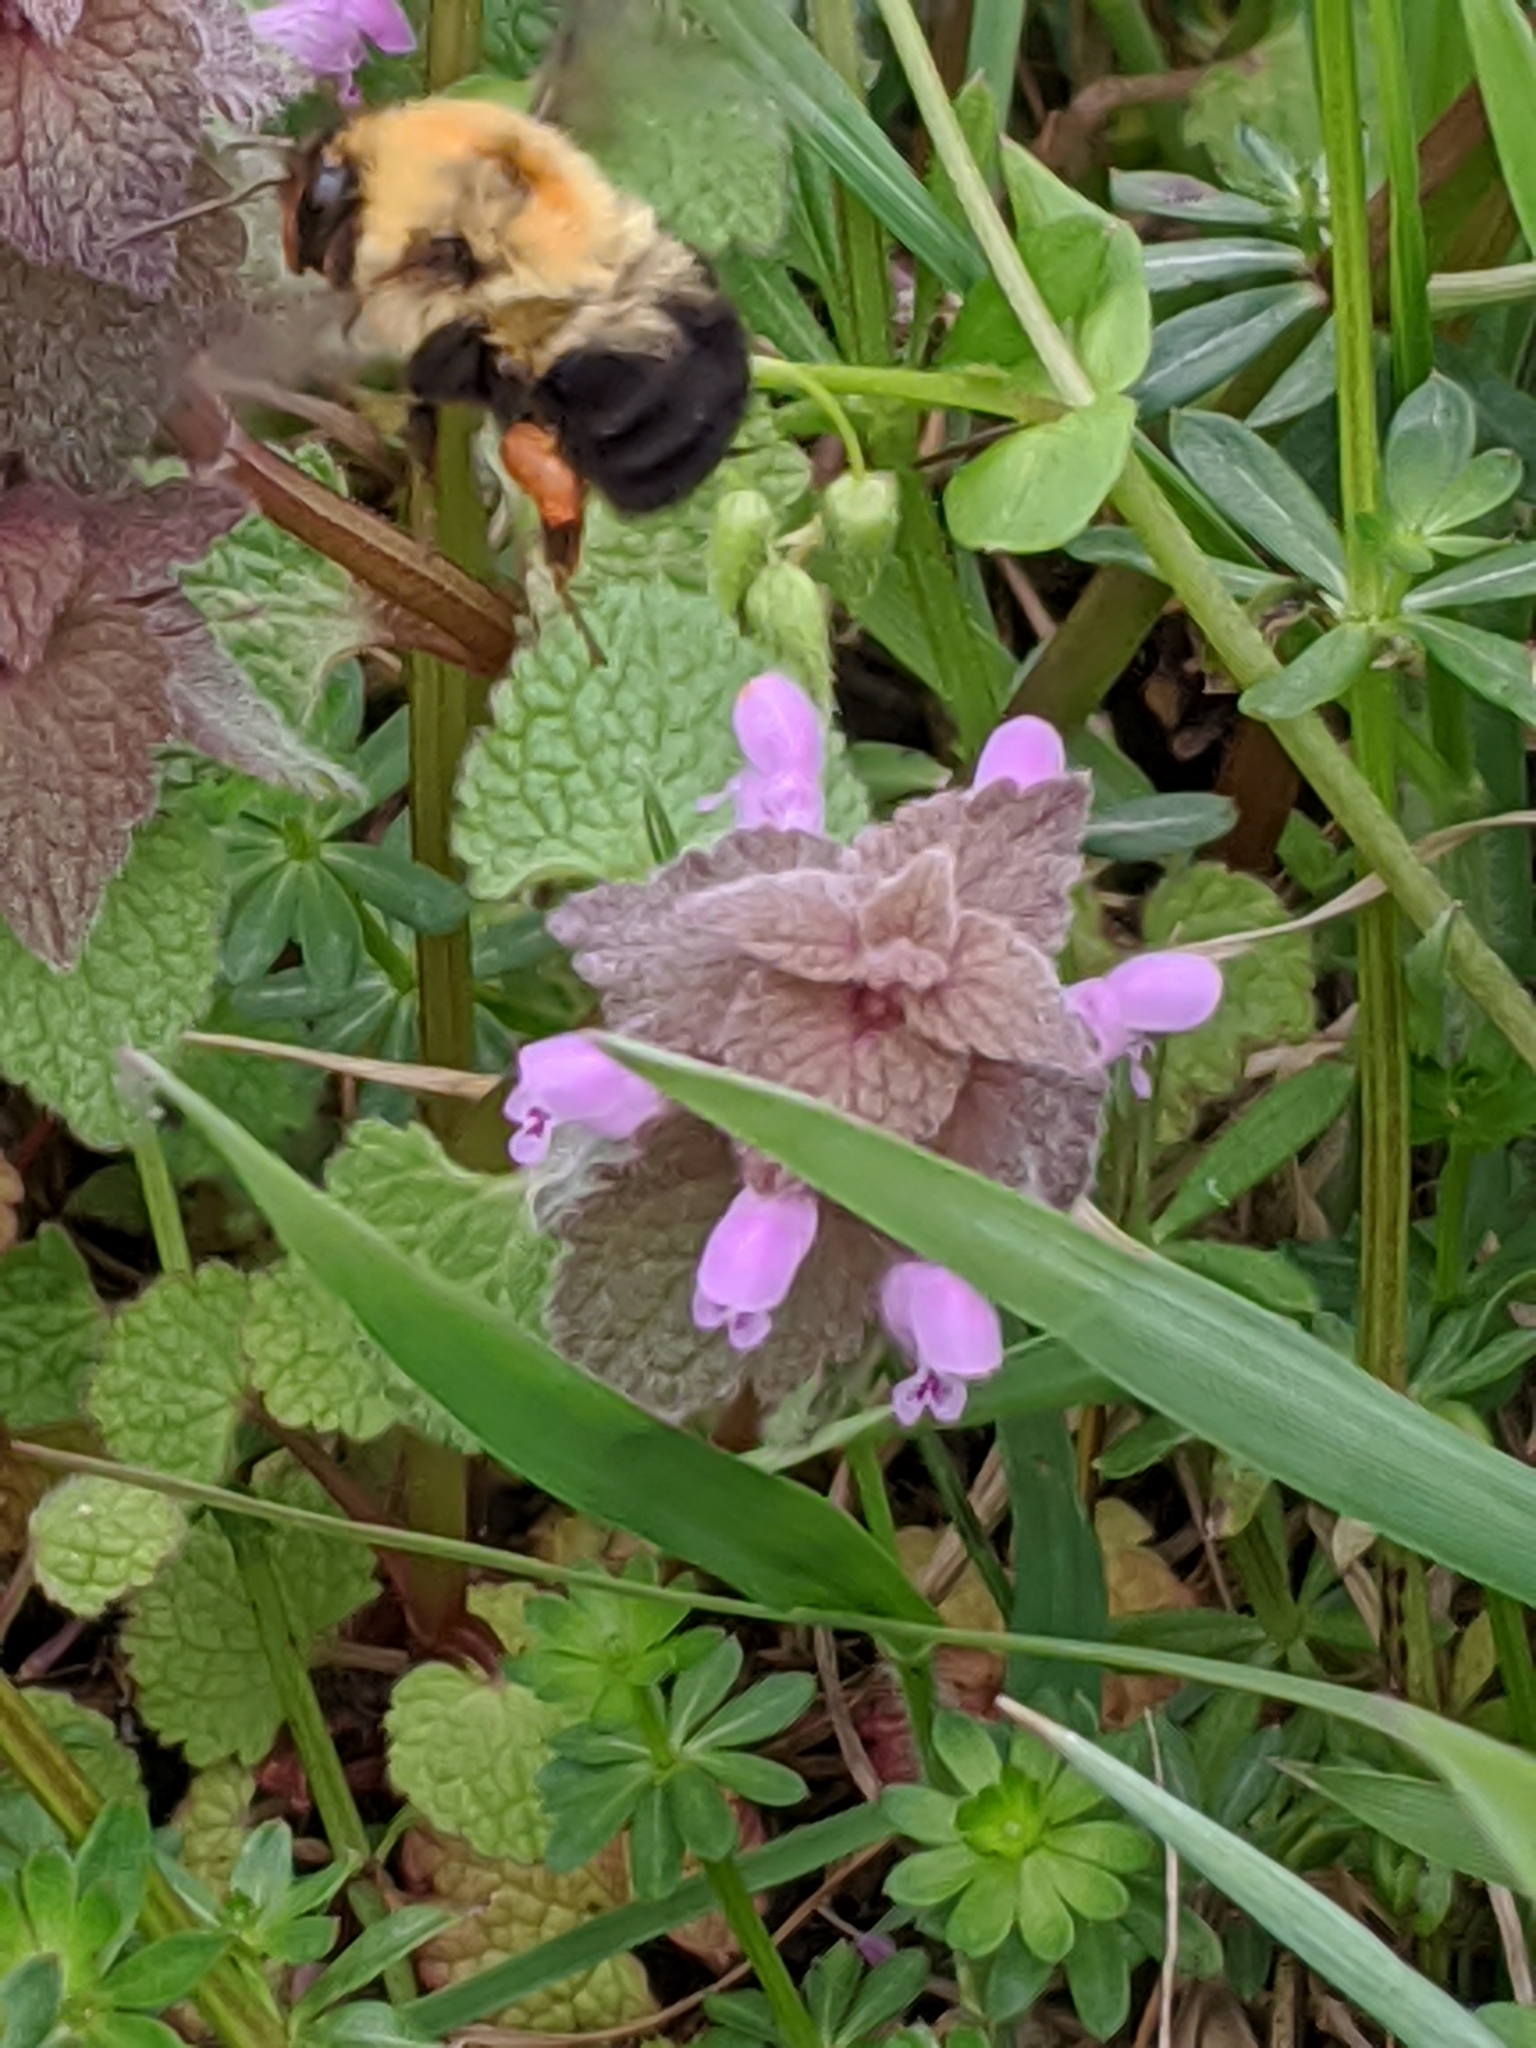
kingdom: Animalia
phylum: Arthropoda
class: Insecta
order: Hymenoptera
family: Apidae
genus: Bombus
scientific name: Bombus bimaculatus
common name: Two-spotted bumble bee
